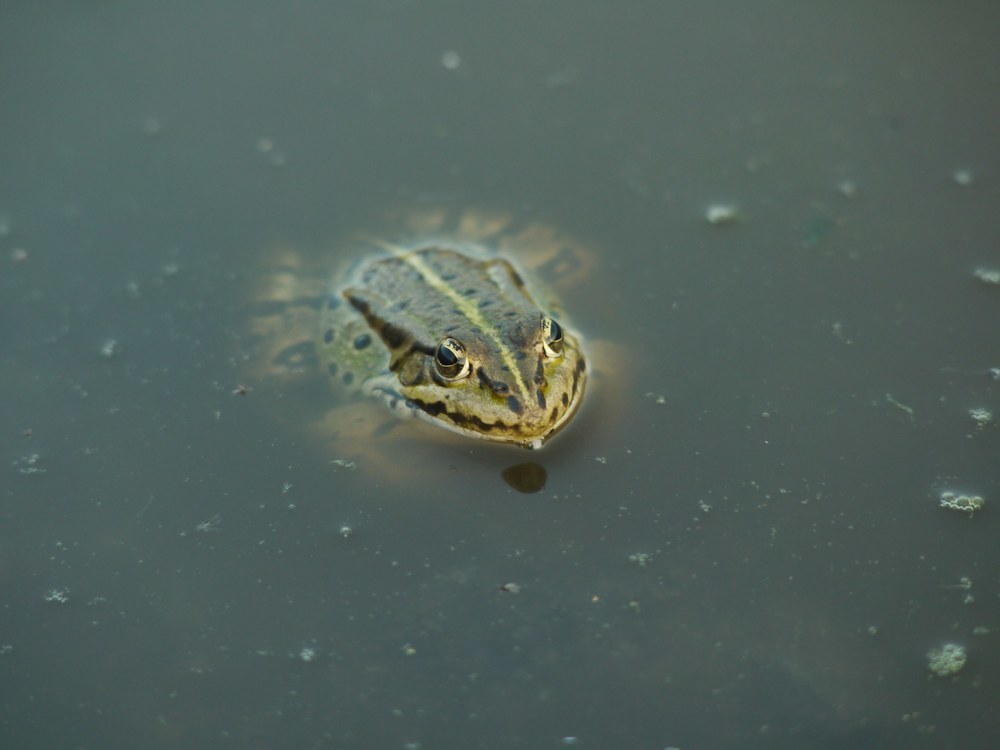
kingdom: Animalia
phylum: Chordata
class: Amphibia
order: Anura
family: Ranidae
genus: Pelophylax
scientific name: Pelophylax ridibundus
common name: Marsh frog
